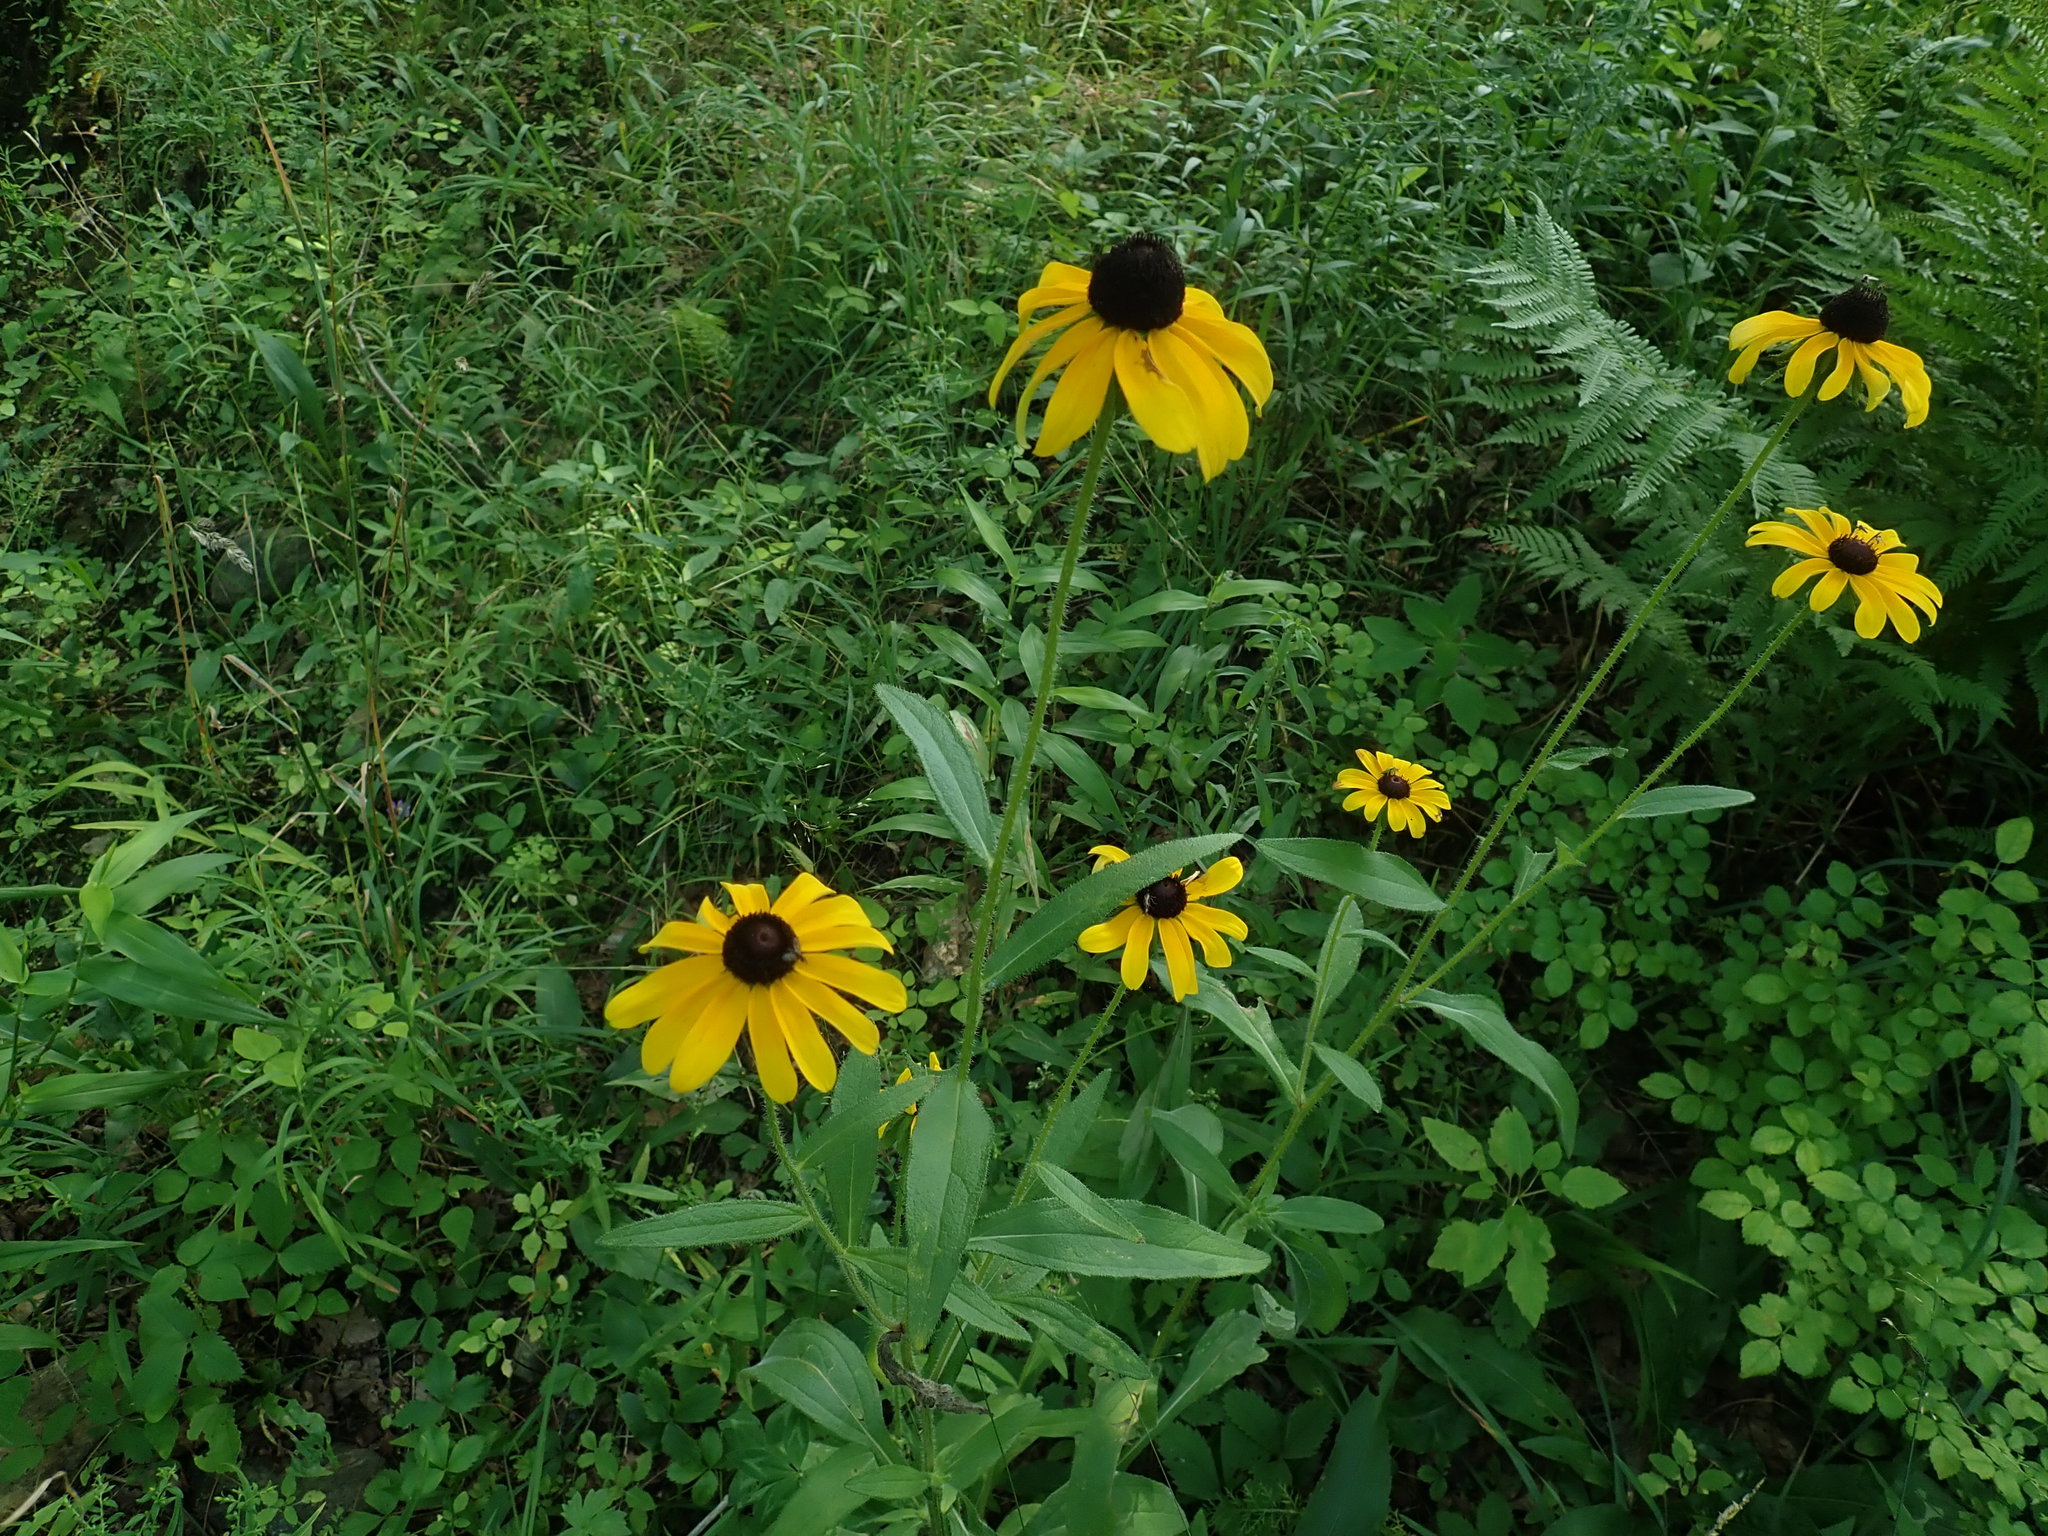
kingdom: Plantae
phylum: Tracheophyta
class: Magnoliopsida
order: Asterales
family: Asteraceae
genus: Rudbeckia
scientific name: Rudbeckia hirta
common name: Black-eyed-susan
